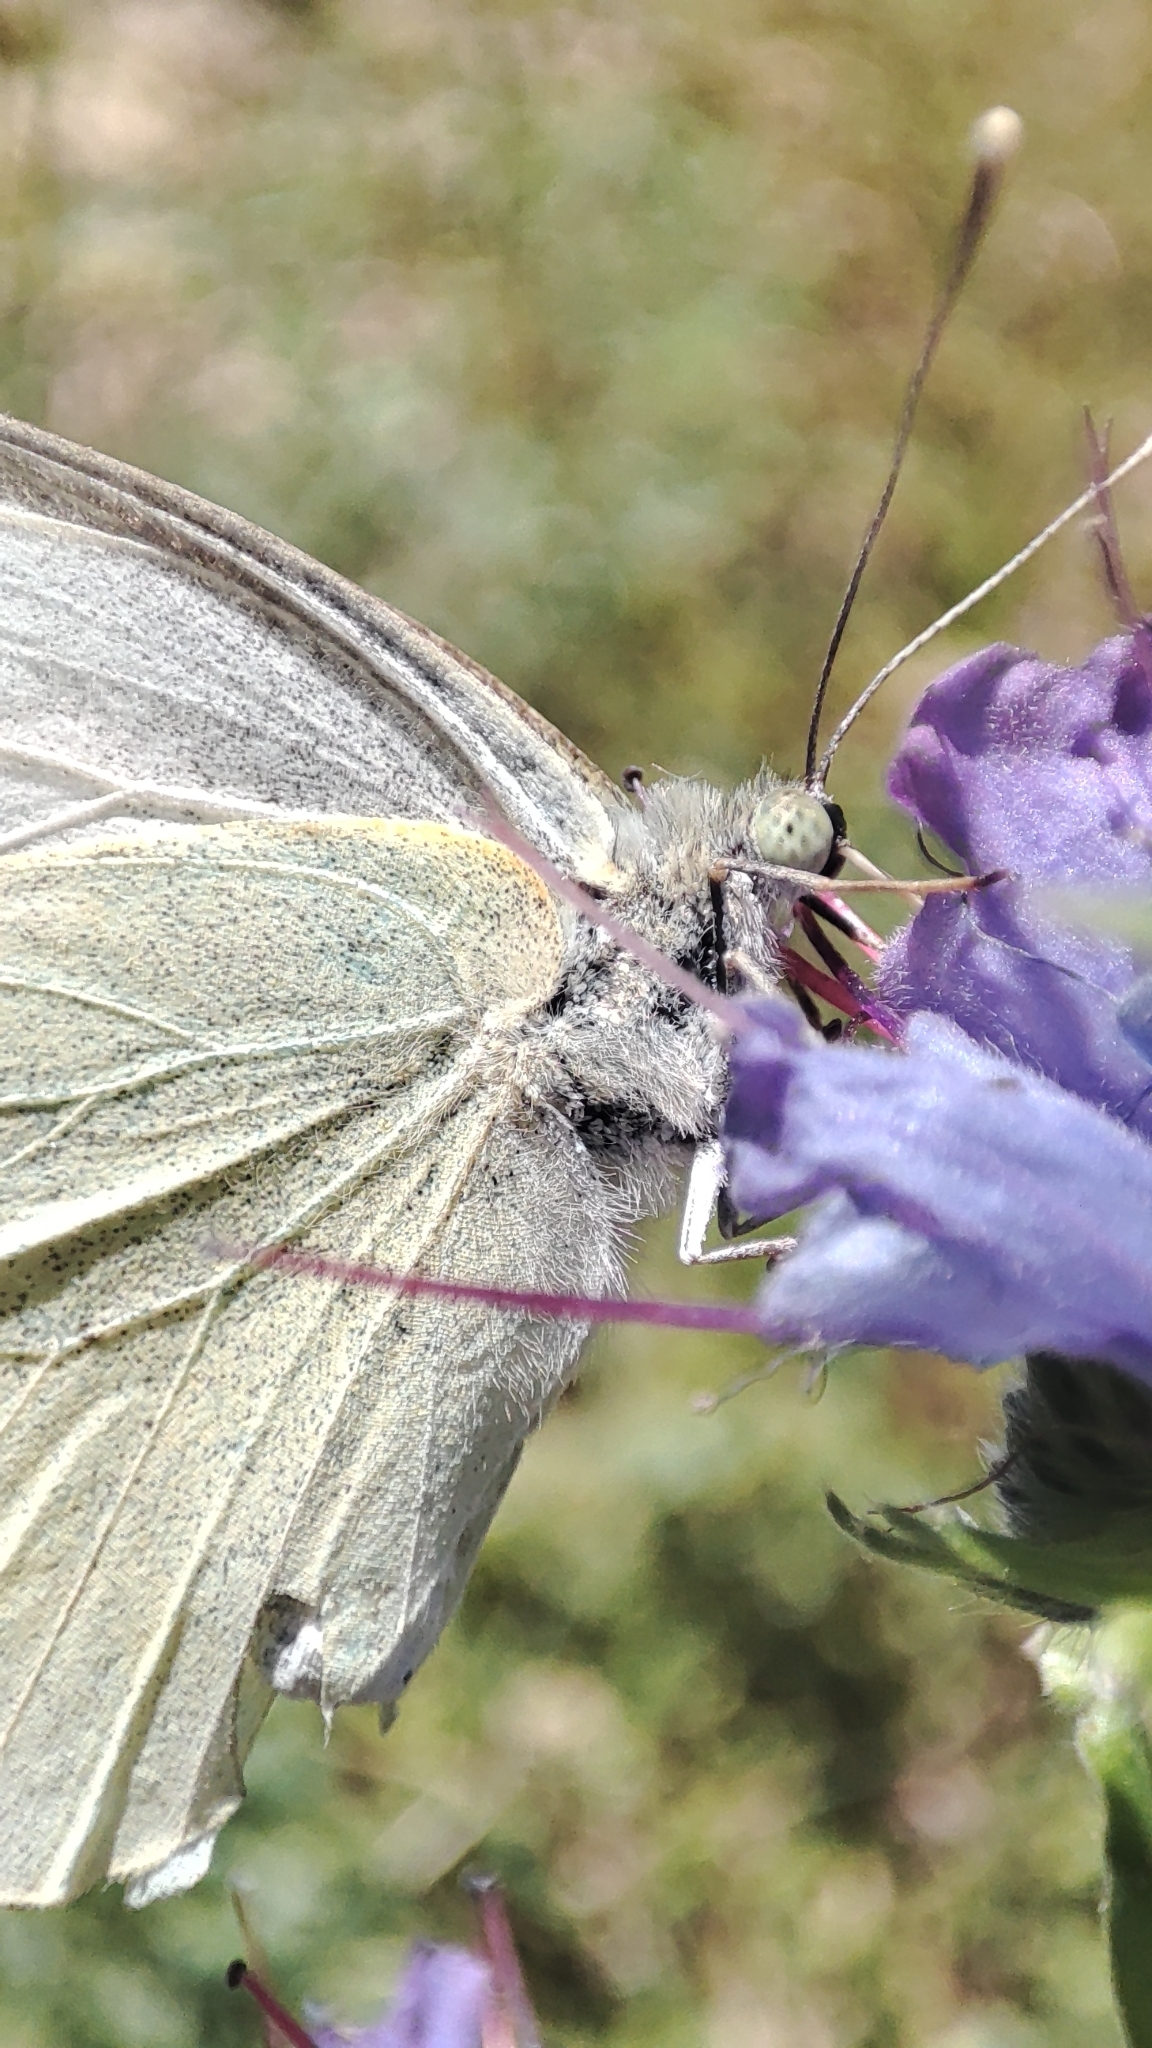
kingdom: Animalia
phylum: Arthropoda
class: Insecta
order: Lepidoptera
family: Pieridae
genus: Pieris
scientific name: Pieris brassicae
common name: Large white
